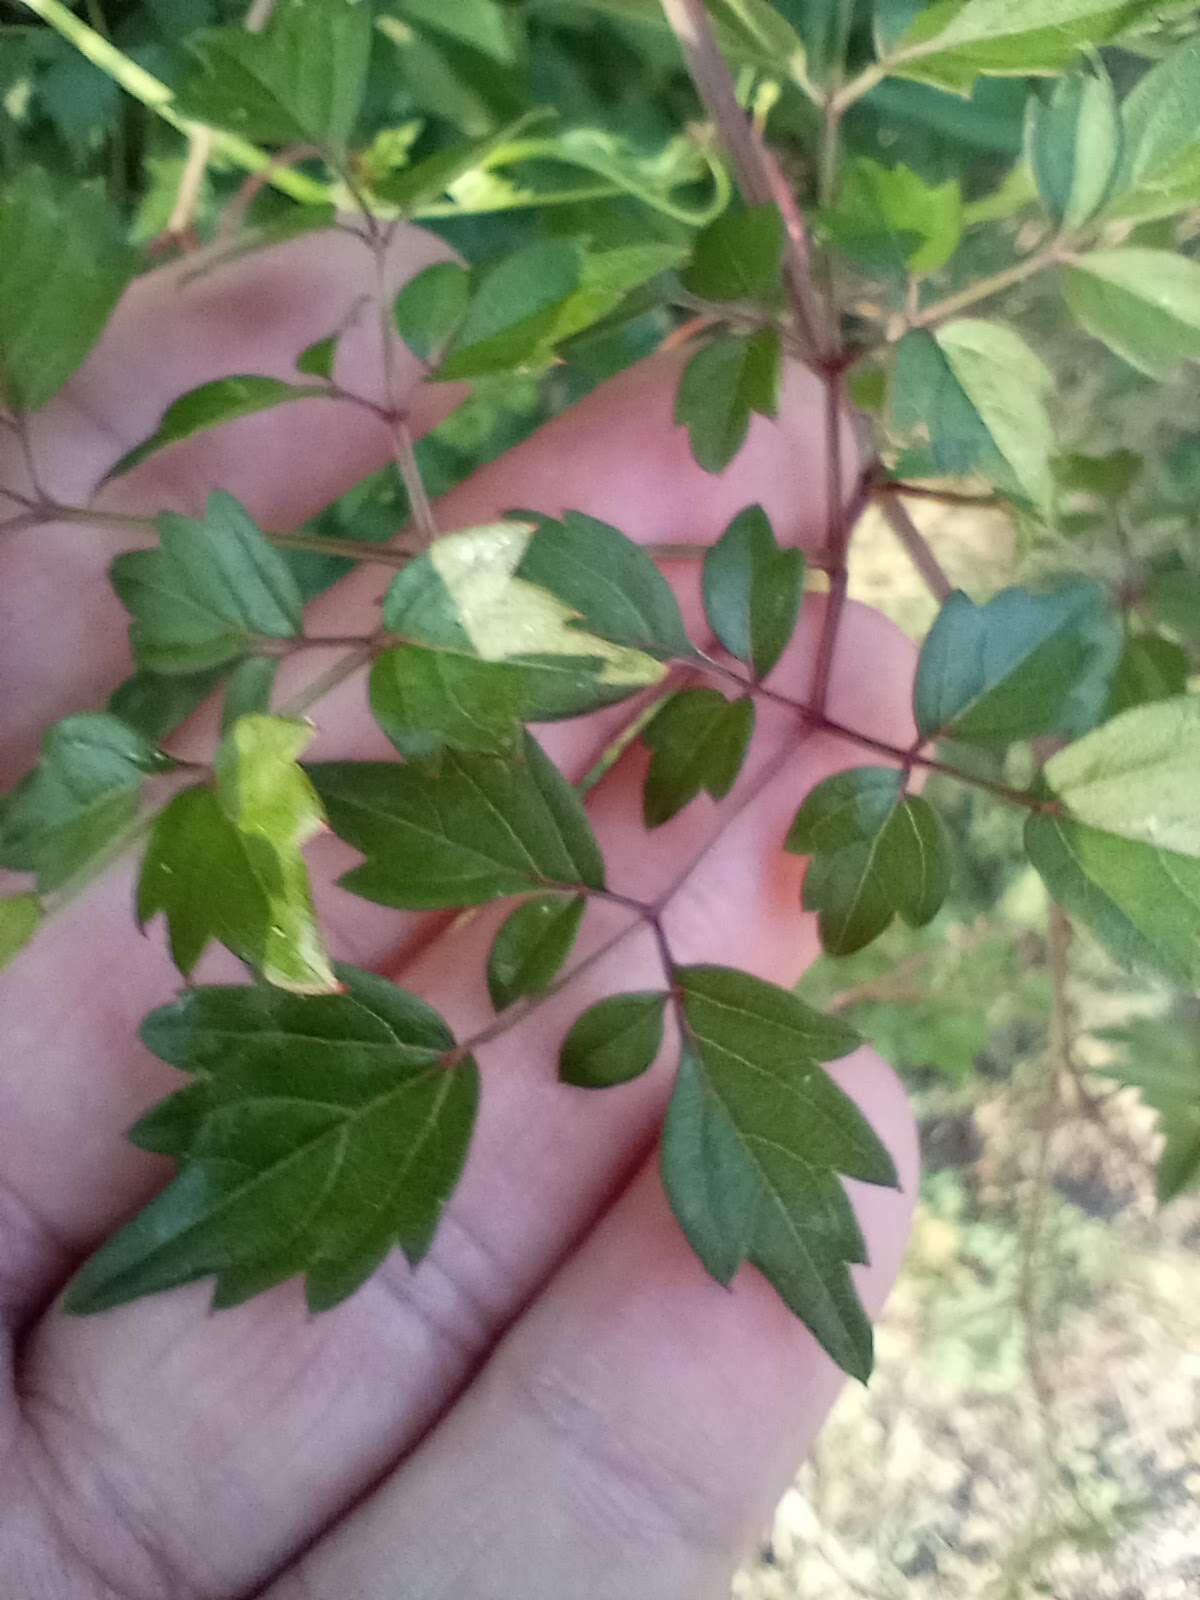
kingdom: Plantae
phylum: Tracheophyta
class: Magnoliopsida
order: Vitales
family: Vitaceae
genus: Nekemias
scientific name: Nekemias arborea
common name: Peppervine
